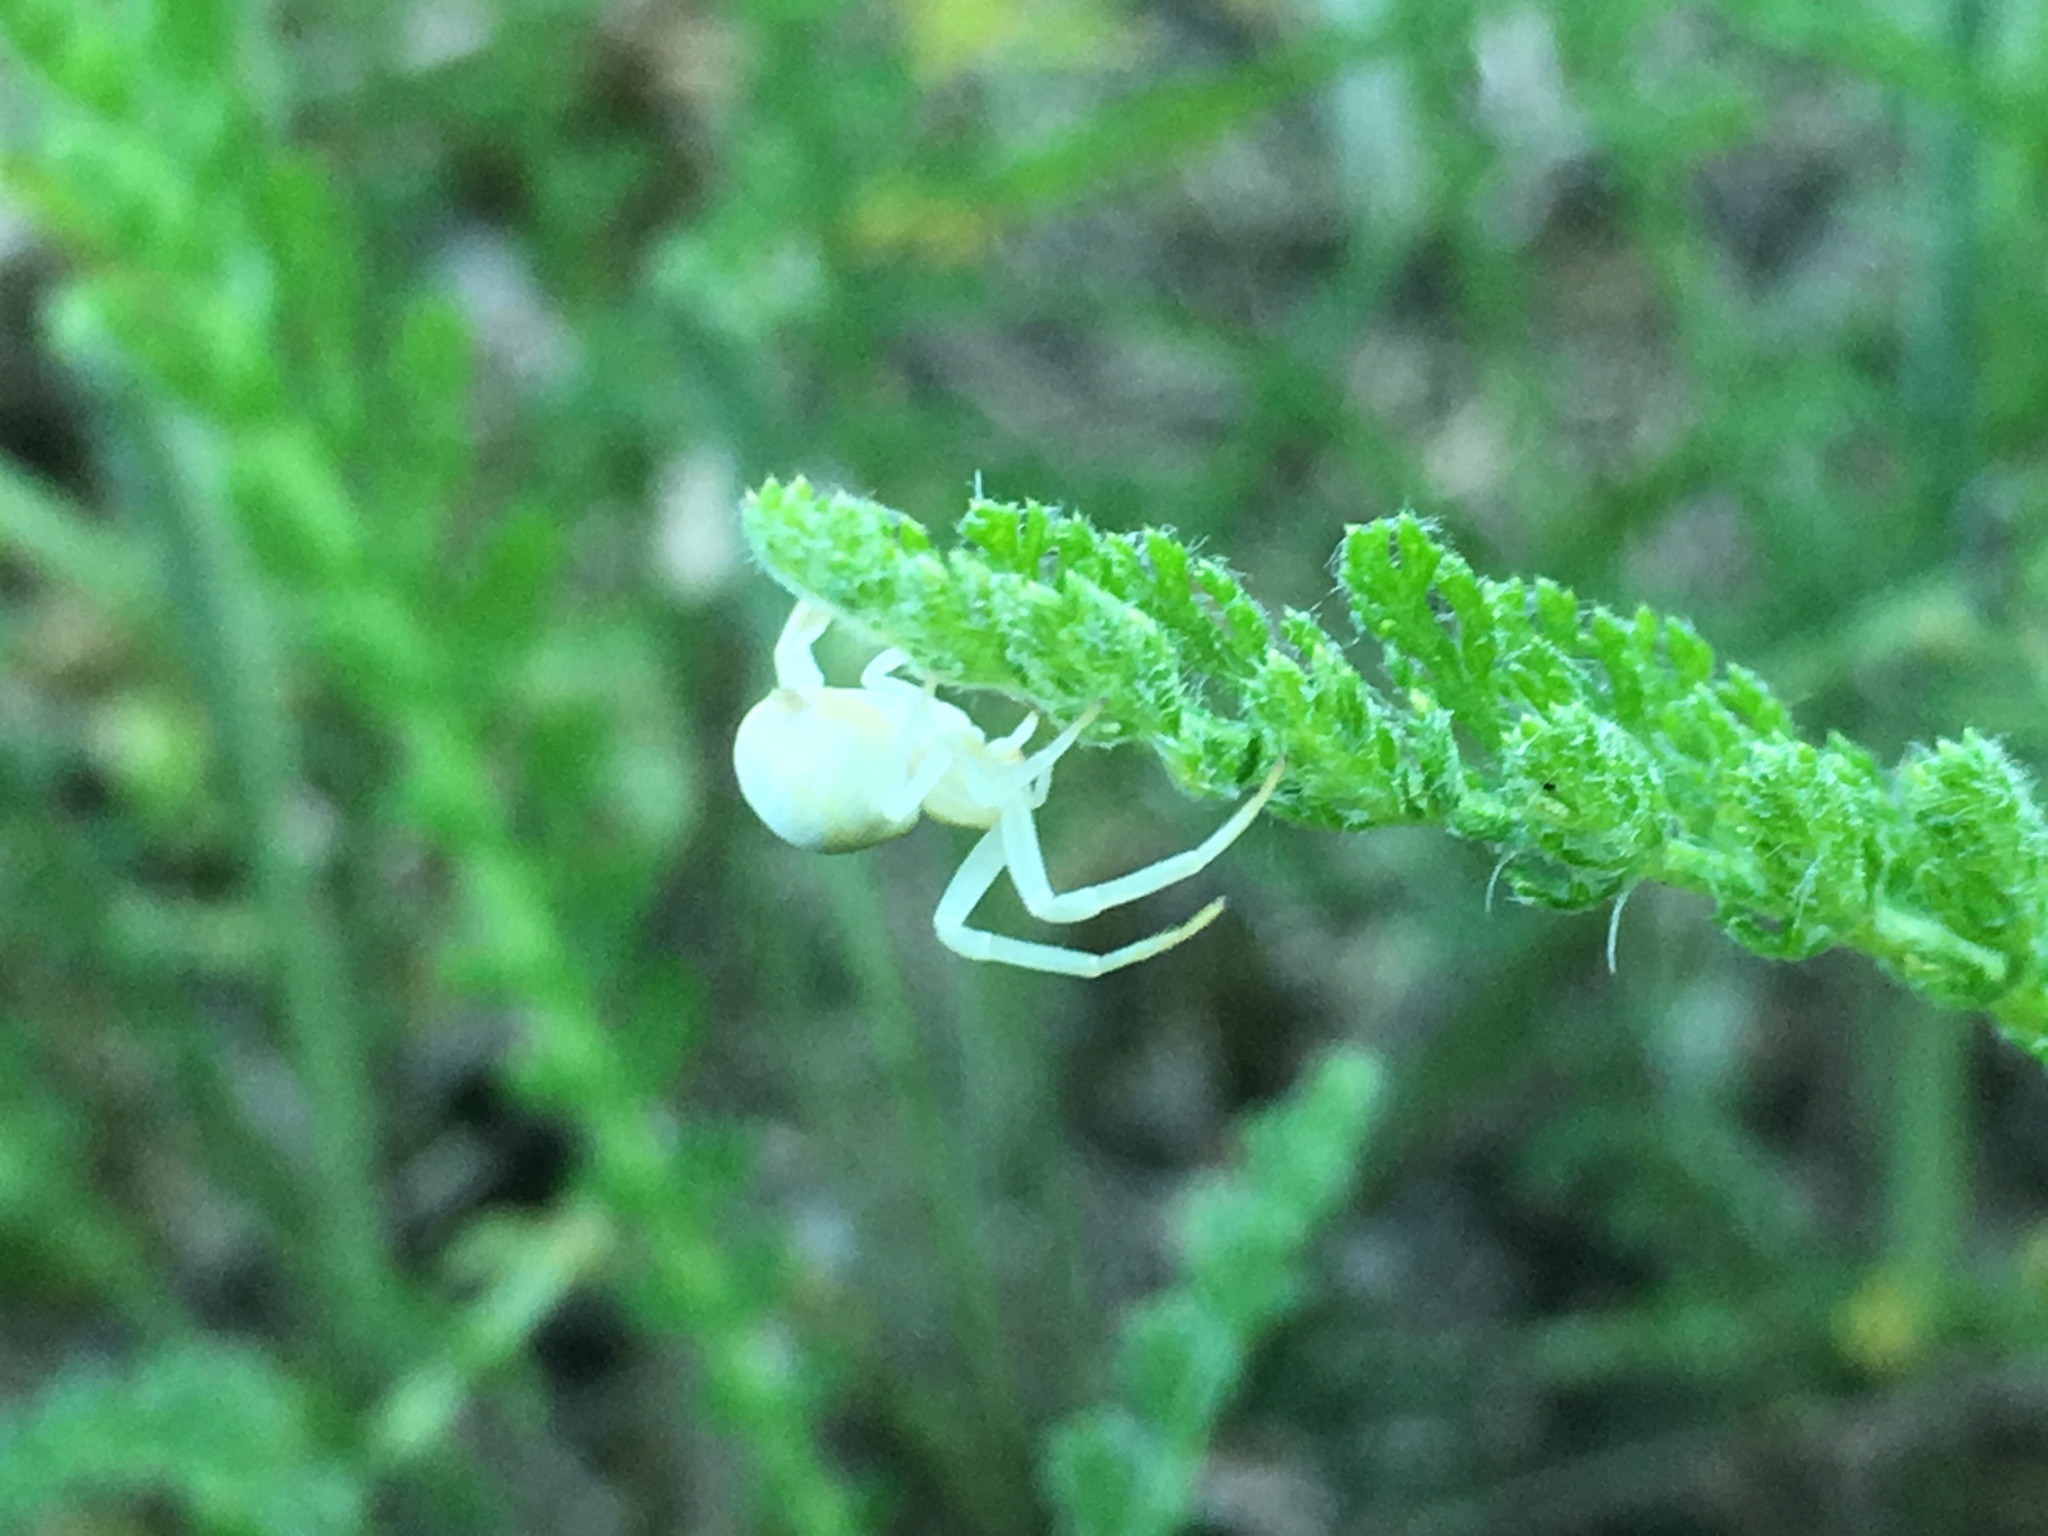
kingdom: Animalia
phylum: Arthropoda
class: Arachnida
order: Araneae
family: Thomisidae
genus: Misumena
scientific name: Misumena vatia
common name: Goldenrod crab spider
